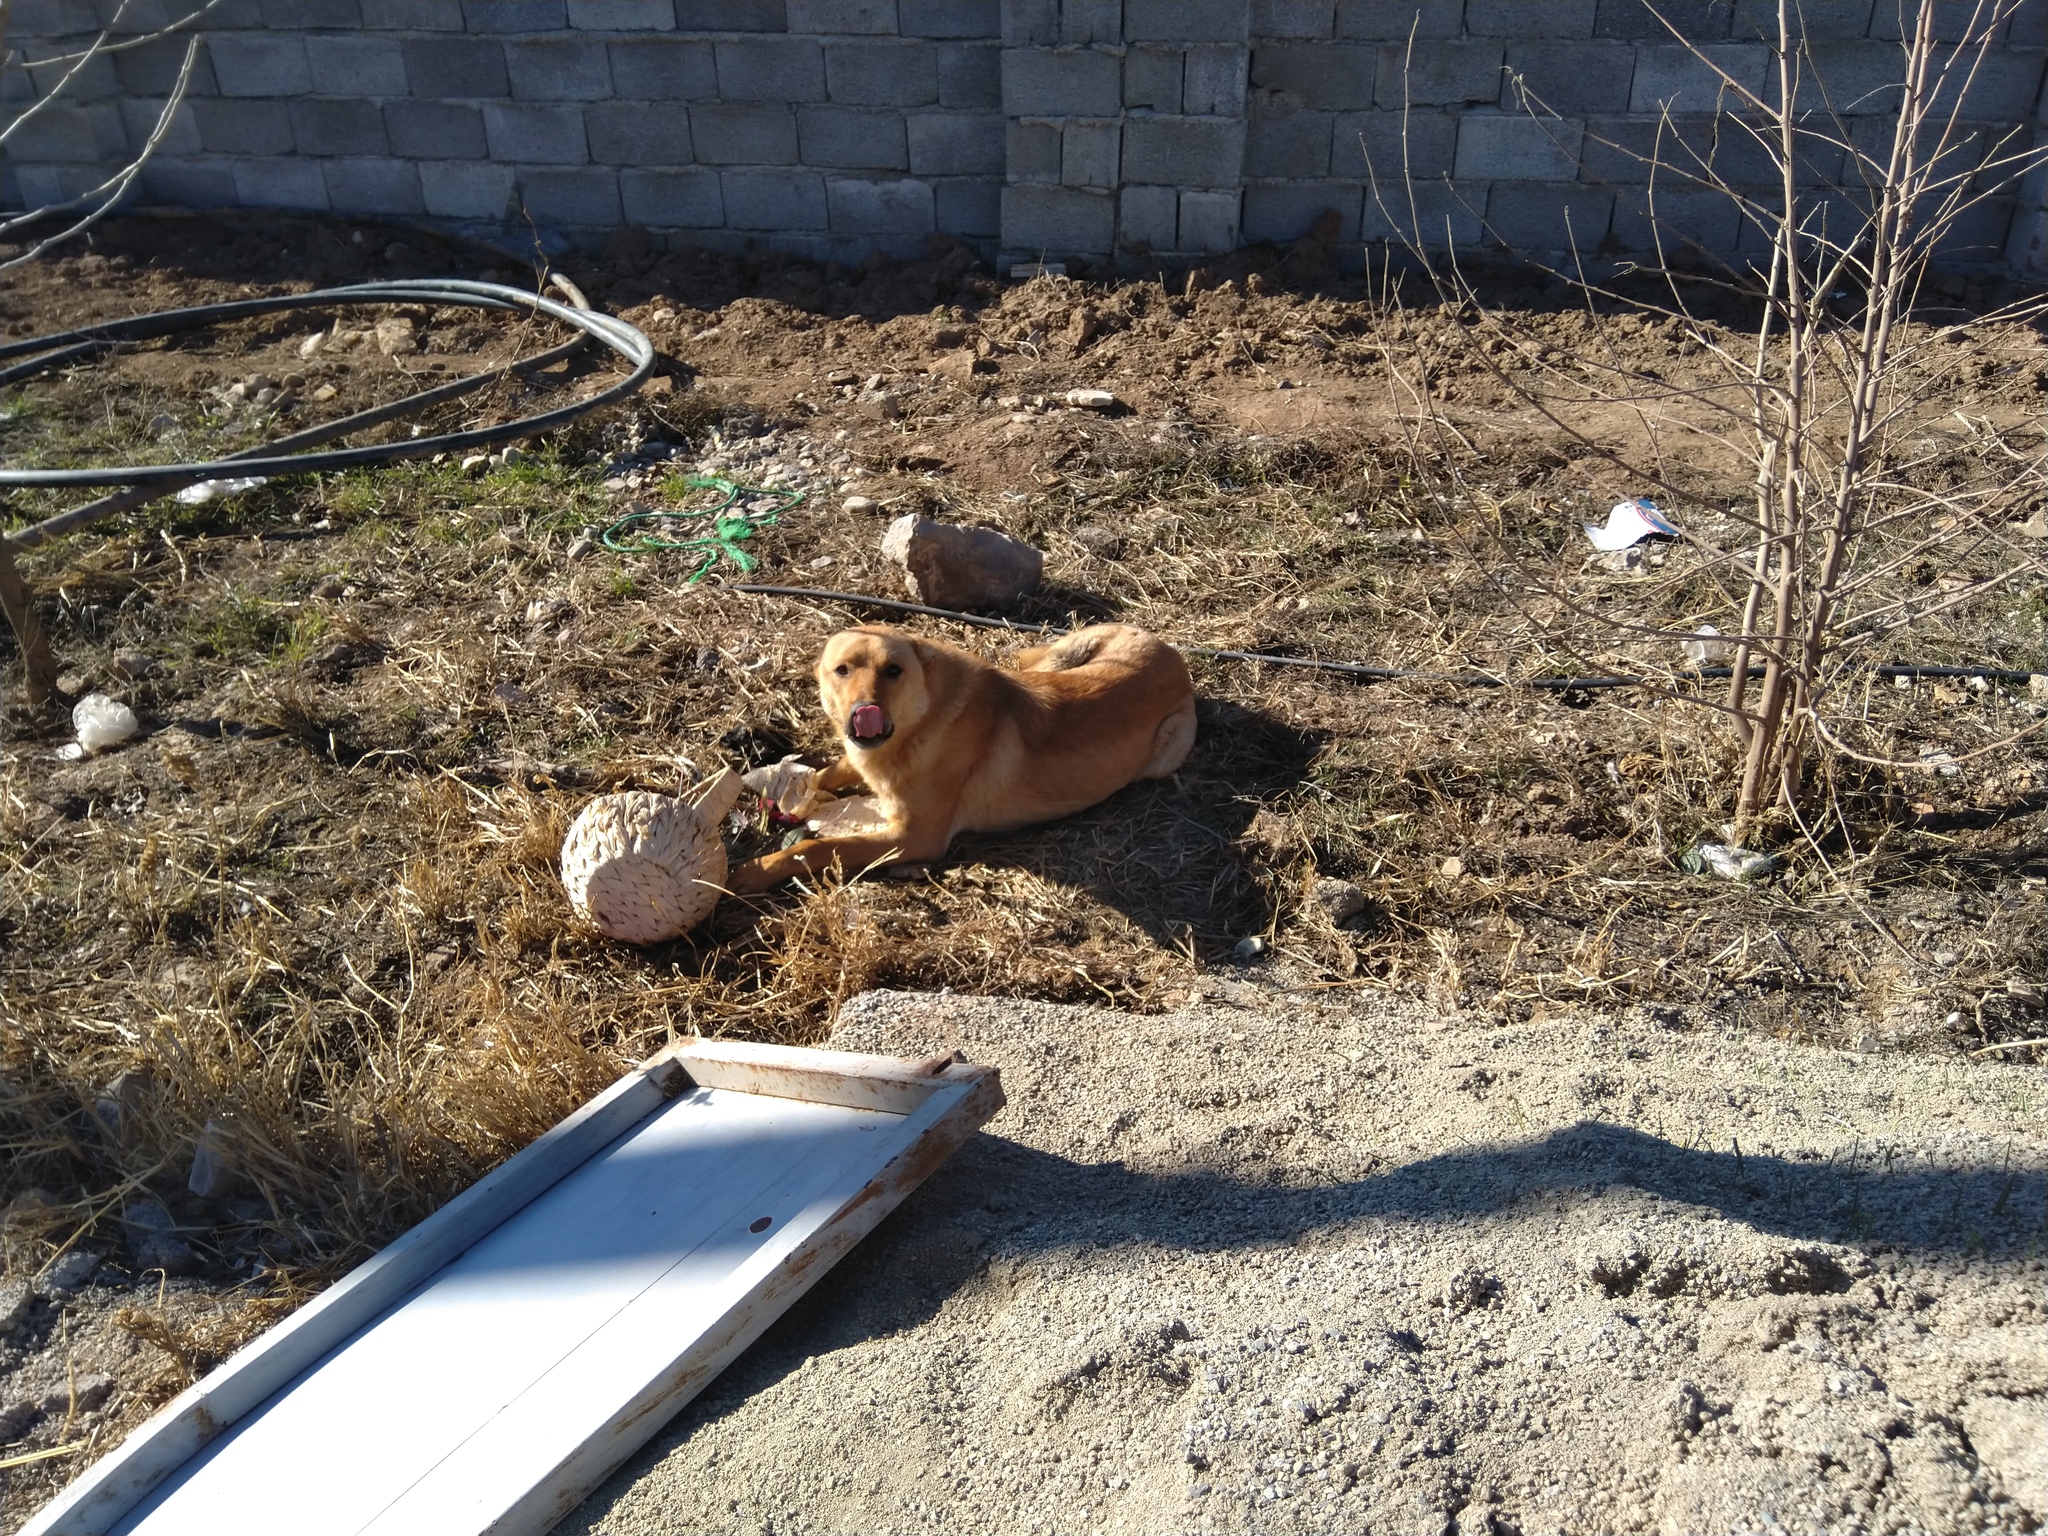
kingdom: Animalia
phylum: Chordata
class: Mammalia
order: Carnivora
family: Canidae
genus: Canis
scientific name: Canis lupus
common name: Gray wolf
